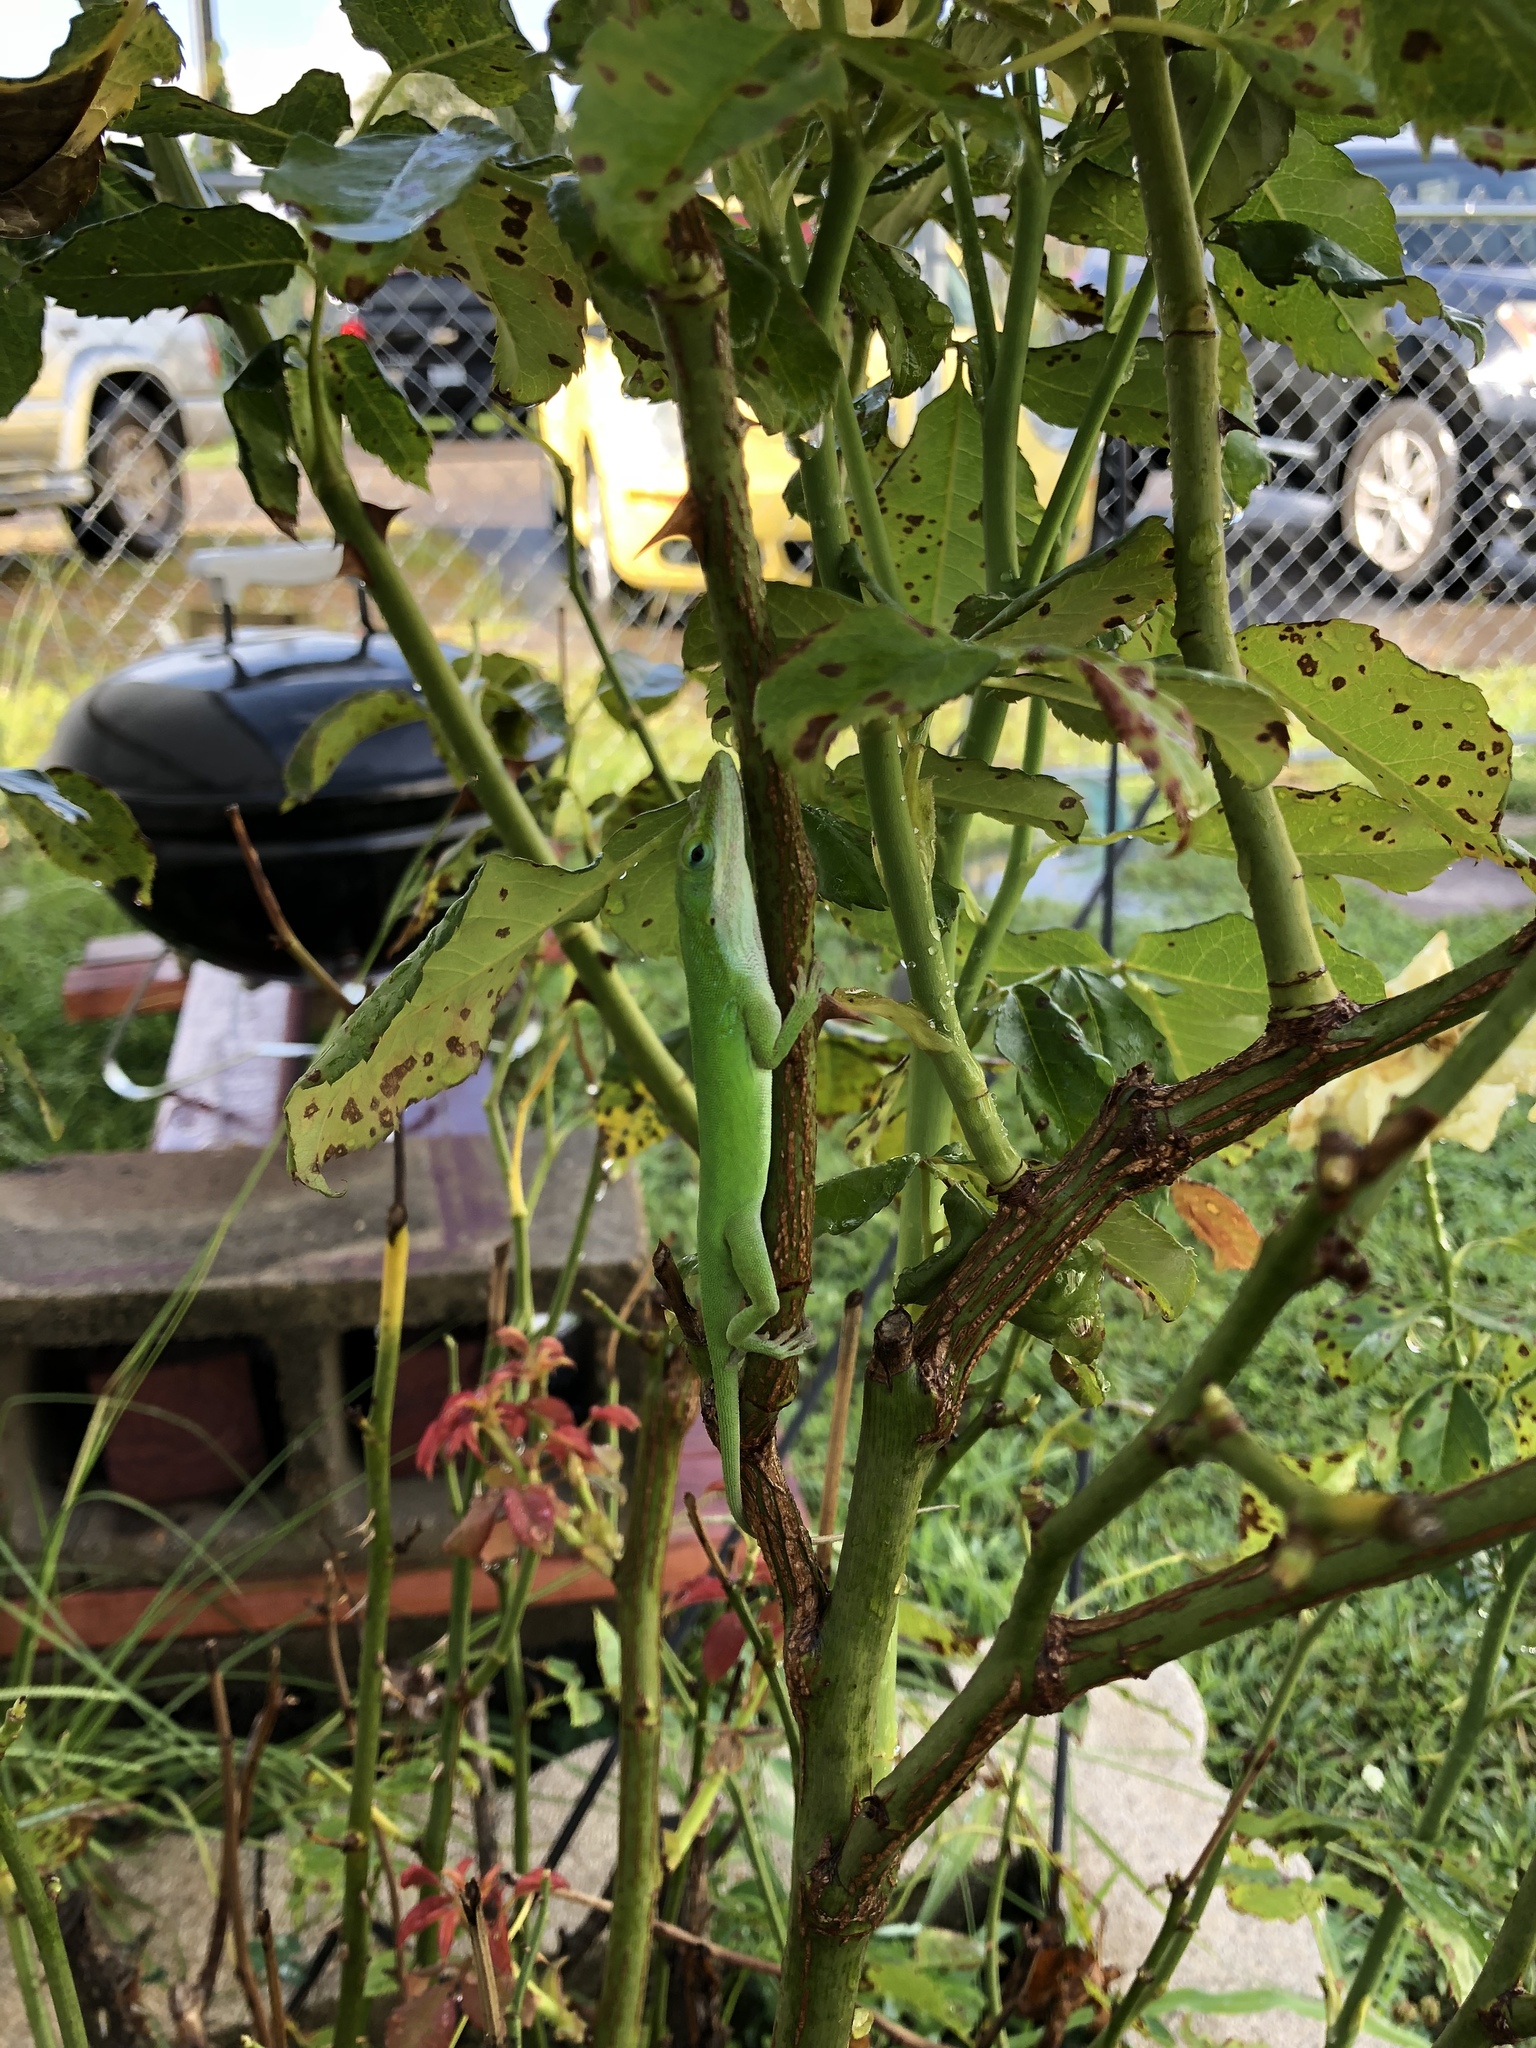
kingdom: Animalia
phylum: Chordata
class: Squamata
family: Dactyloidae
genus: Anolis
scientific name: Anolis carolinensis
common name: Green anole
